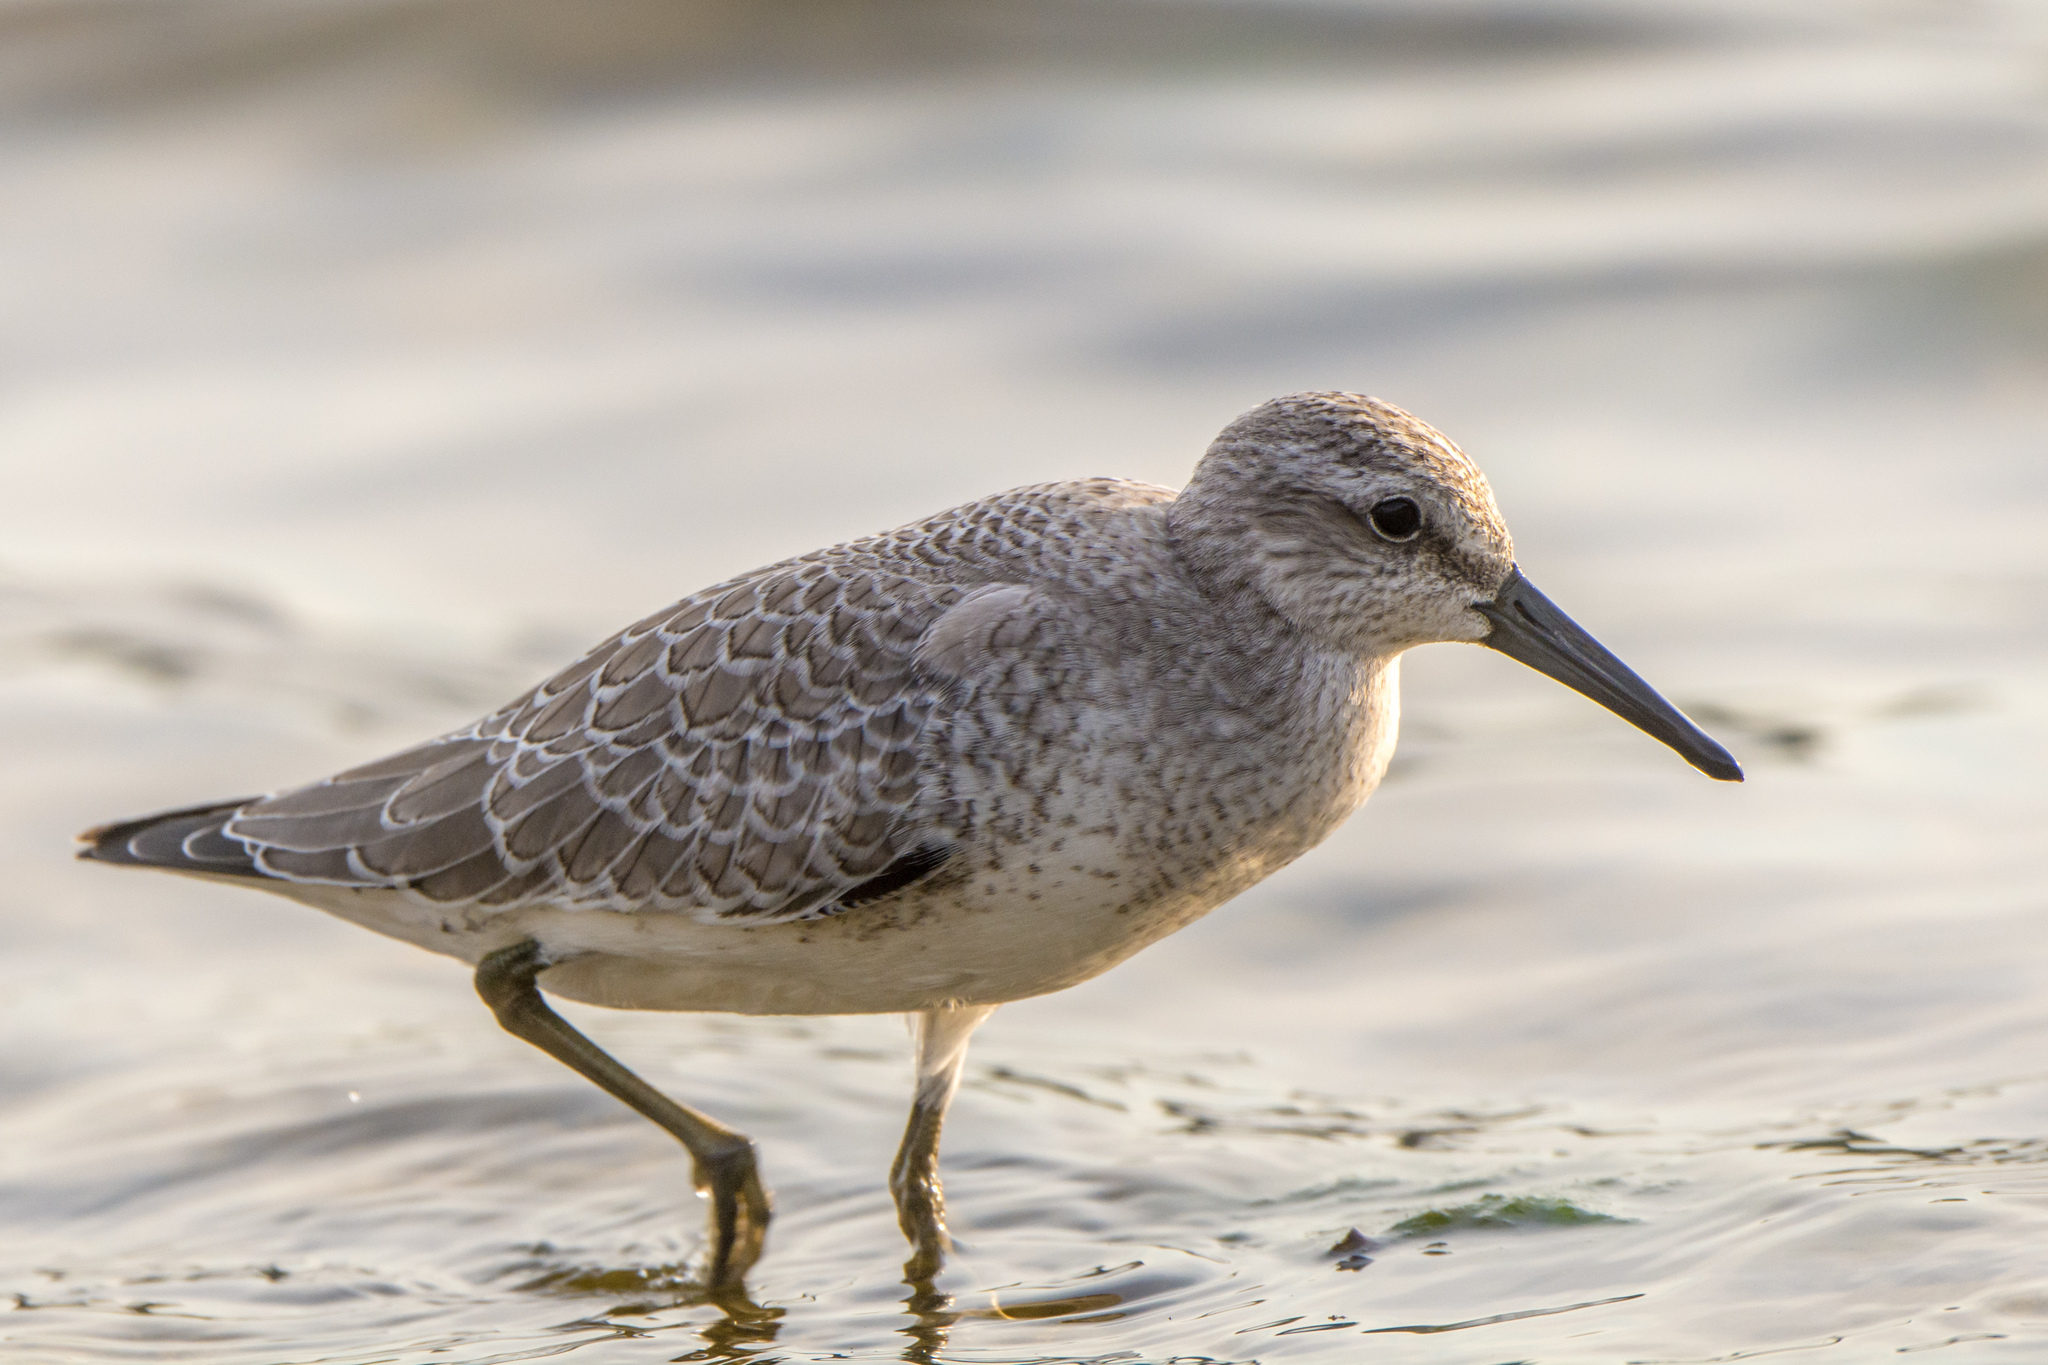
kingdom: Animalia
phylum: Chordata
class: Aves
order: Charadriiformes
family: Scolopacidae
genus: Calidris
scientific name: Calidris canutus
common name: Red knot
